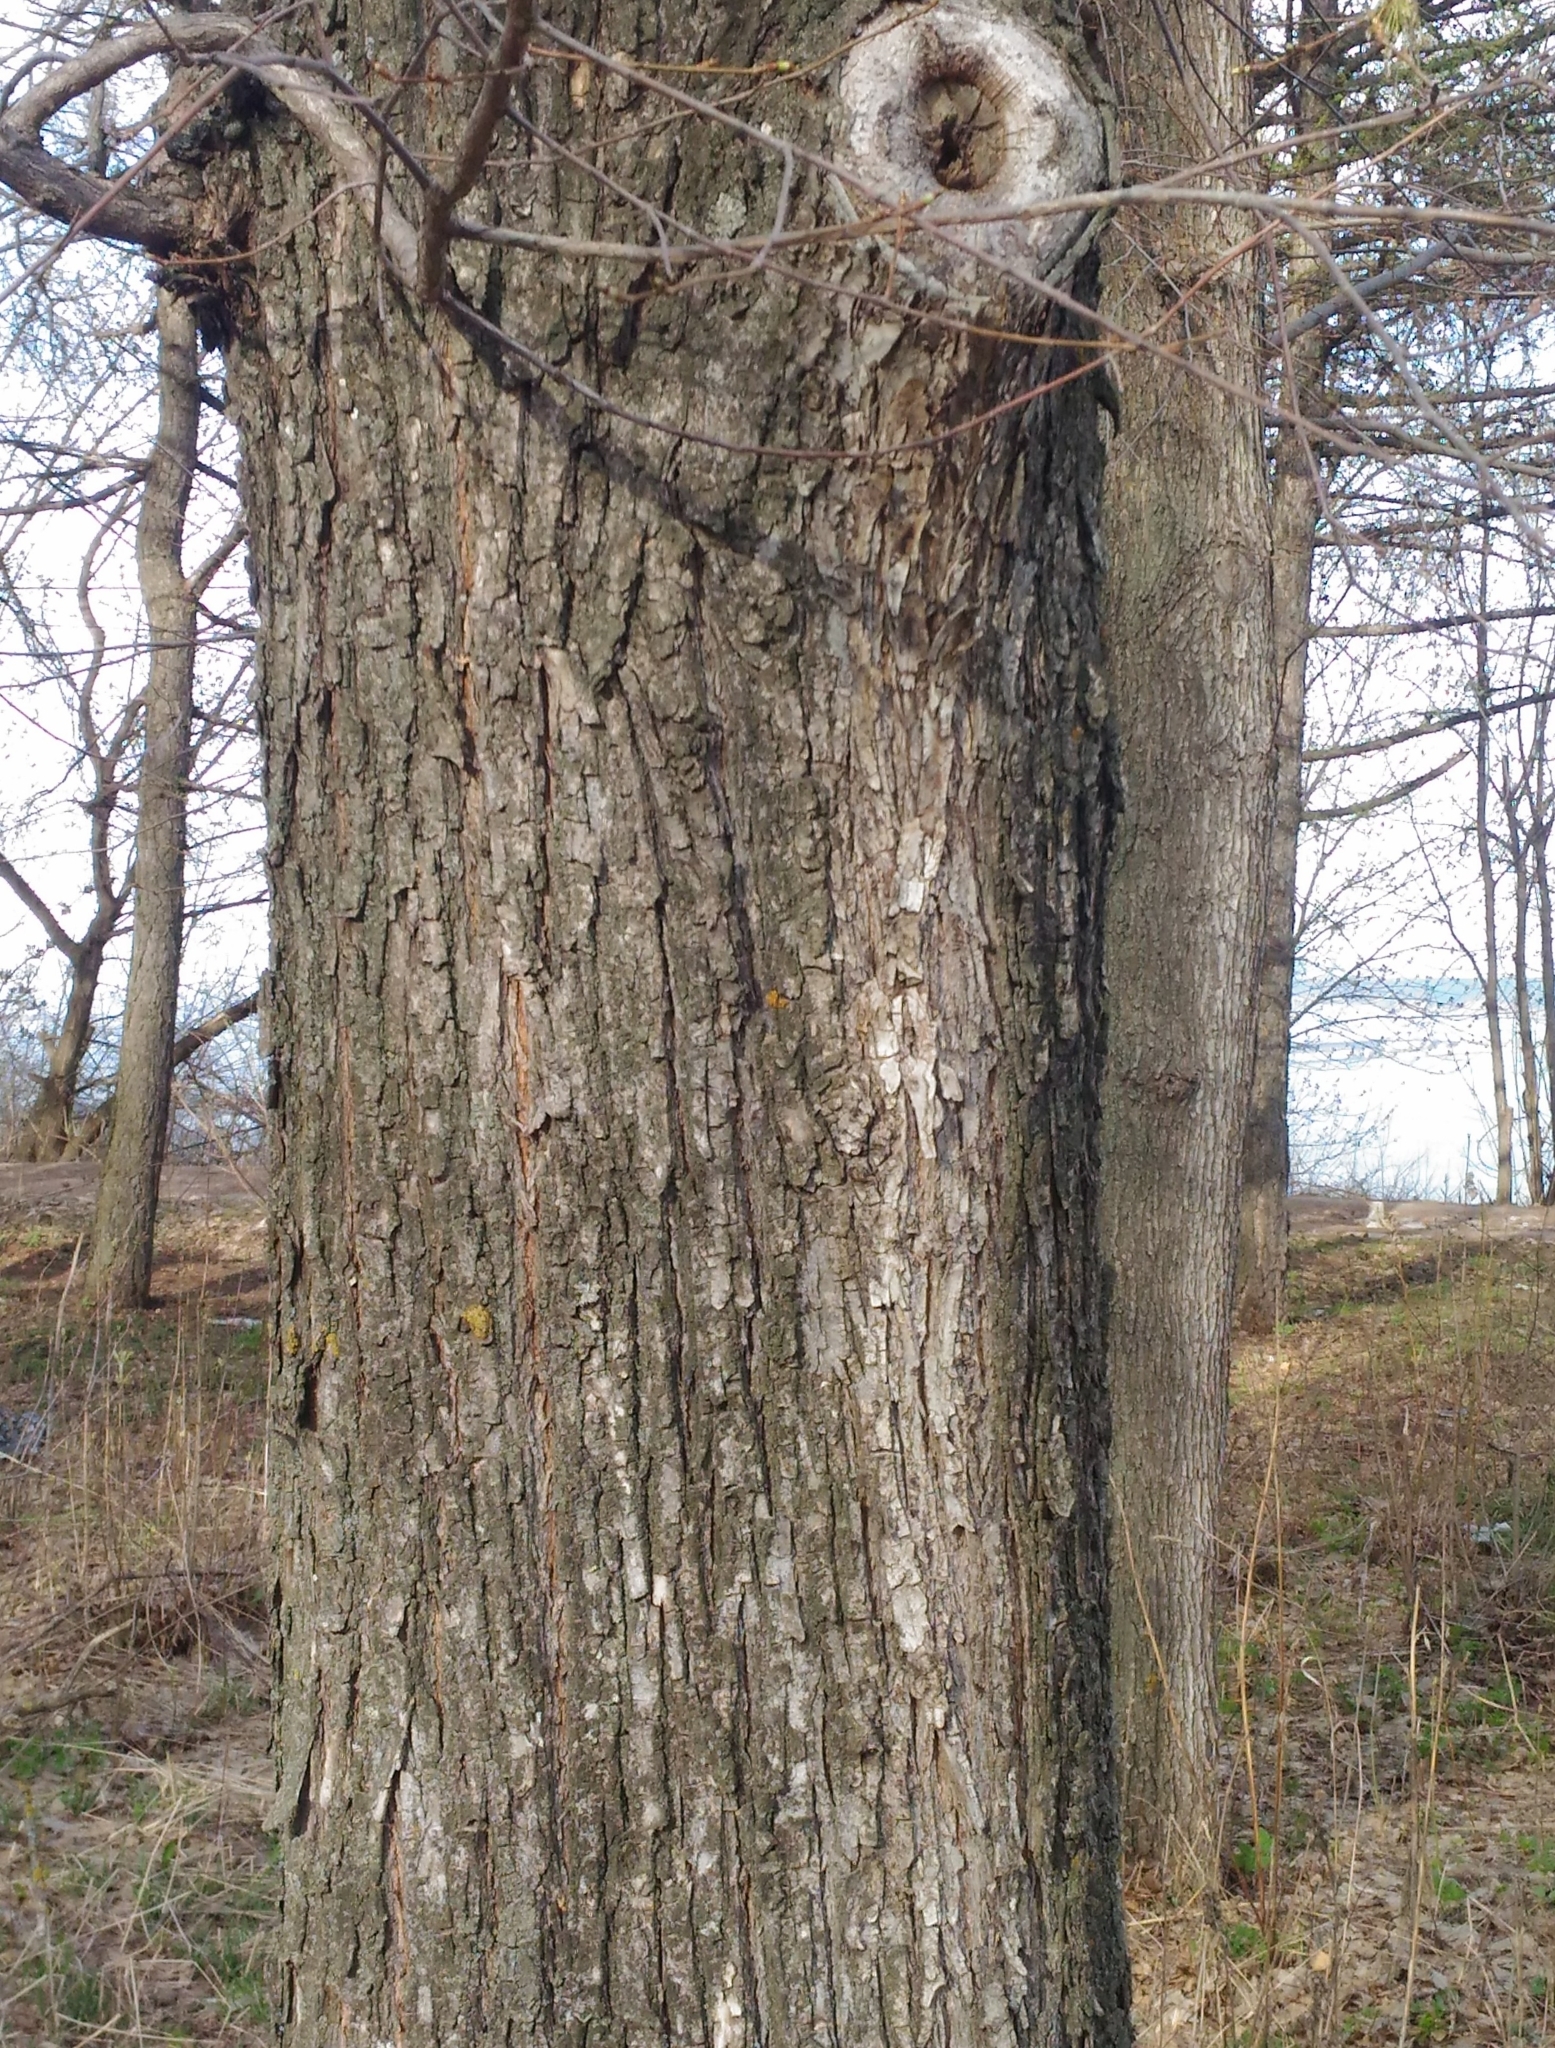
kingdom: Plantae
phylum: Tracheophyta
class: Magnoliopsida
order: Fagales
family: Fagaceae
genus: Quercus
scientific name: Quercus robur
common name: Pedunculate oak
